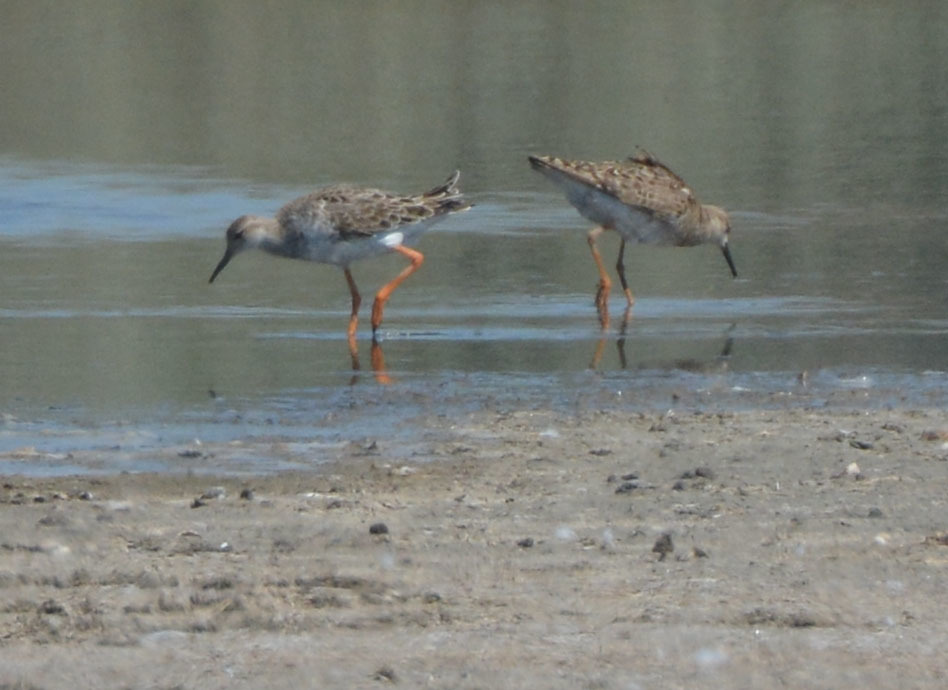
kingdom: Animalia
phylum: Chordata
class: Aves
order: Charadriiformes
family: Scolopacidae
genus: Calidris
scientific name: Calidris pugnax
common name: Ruff
